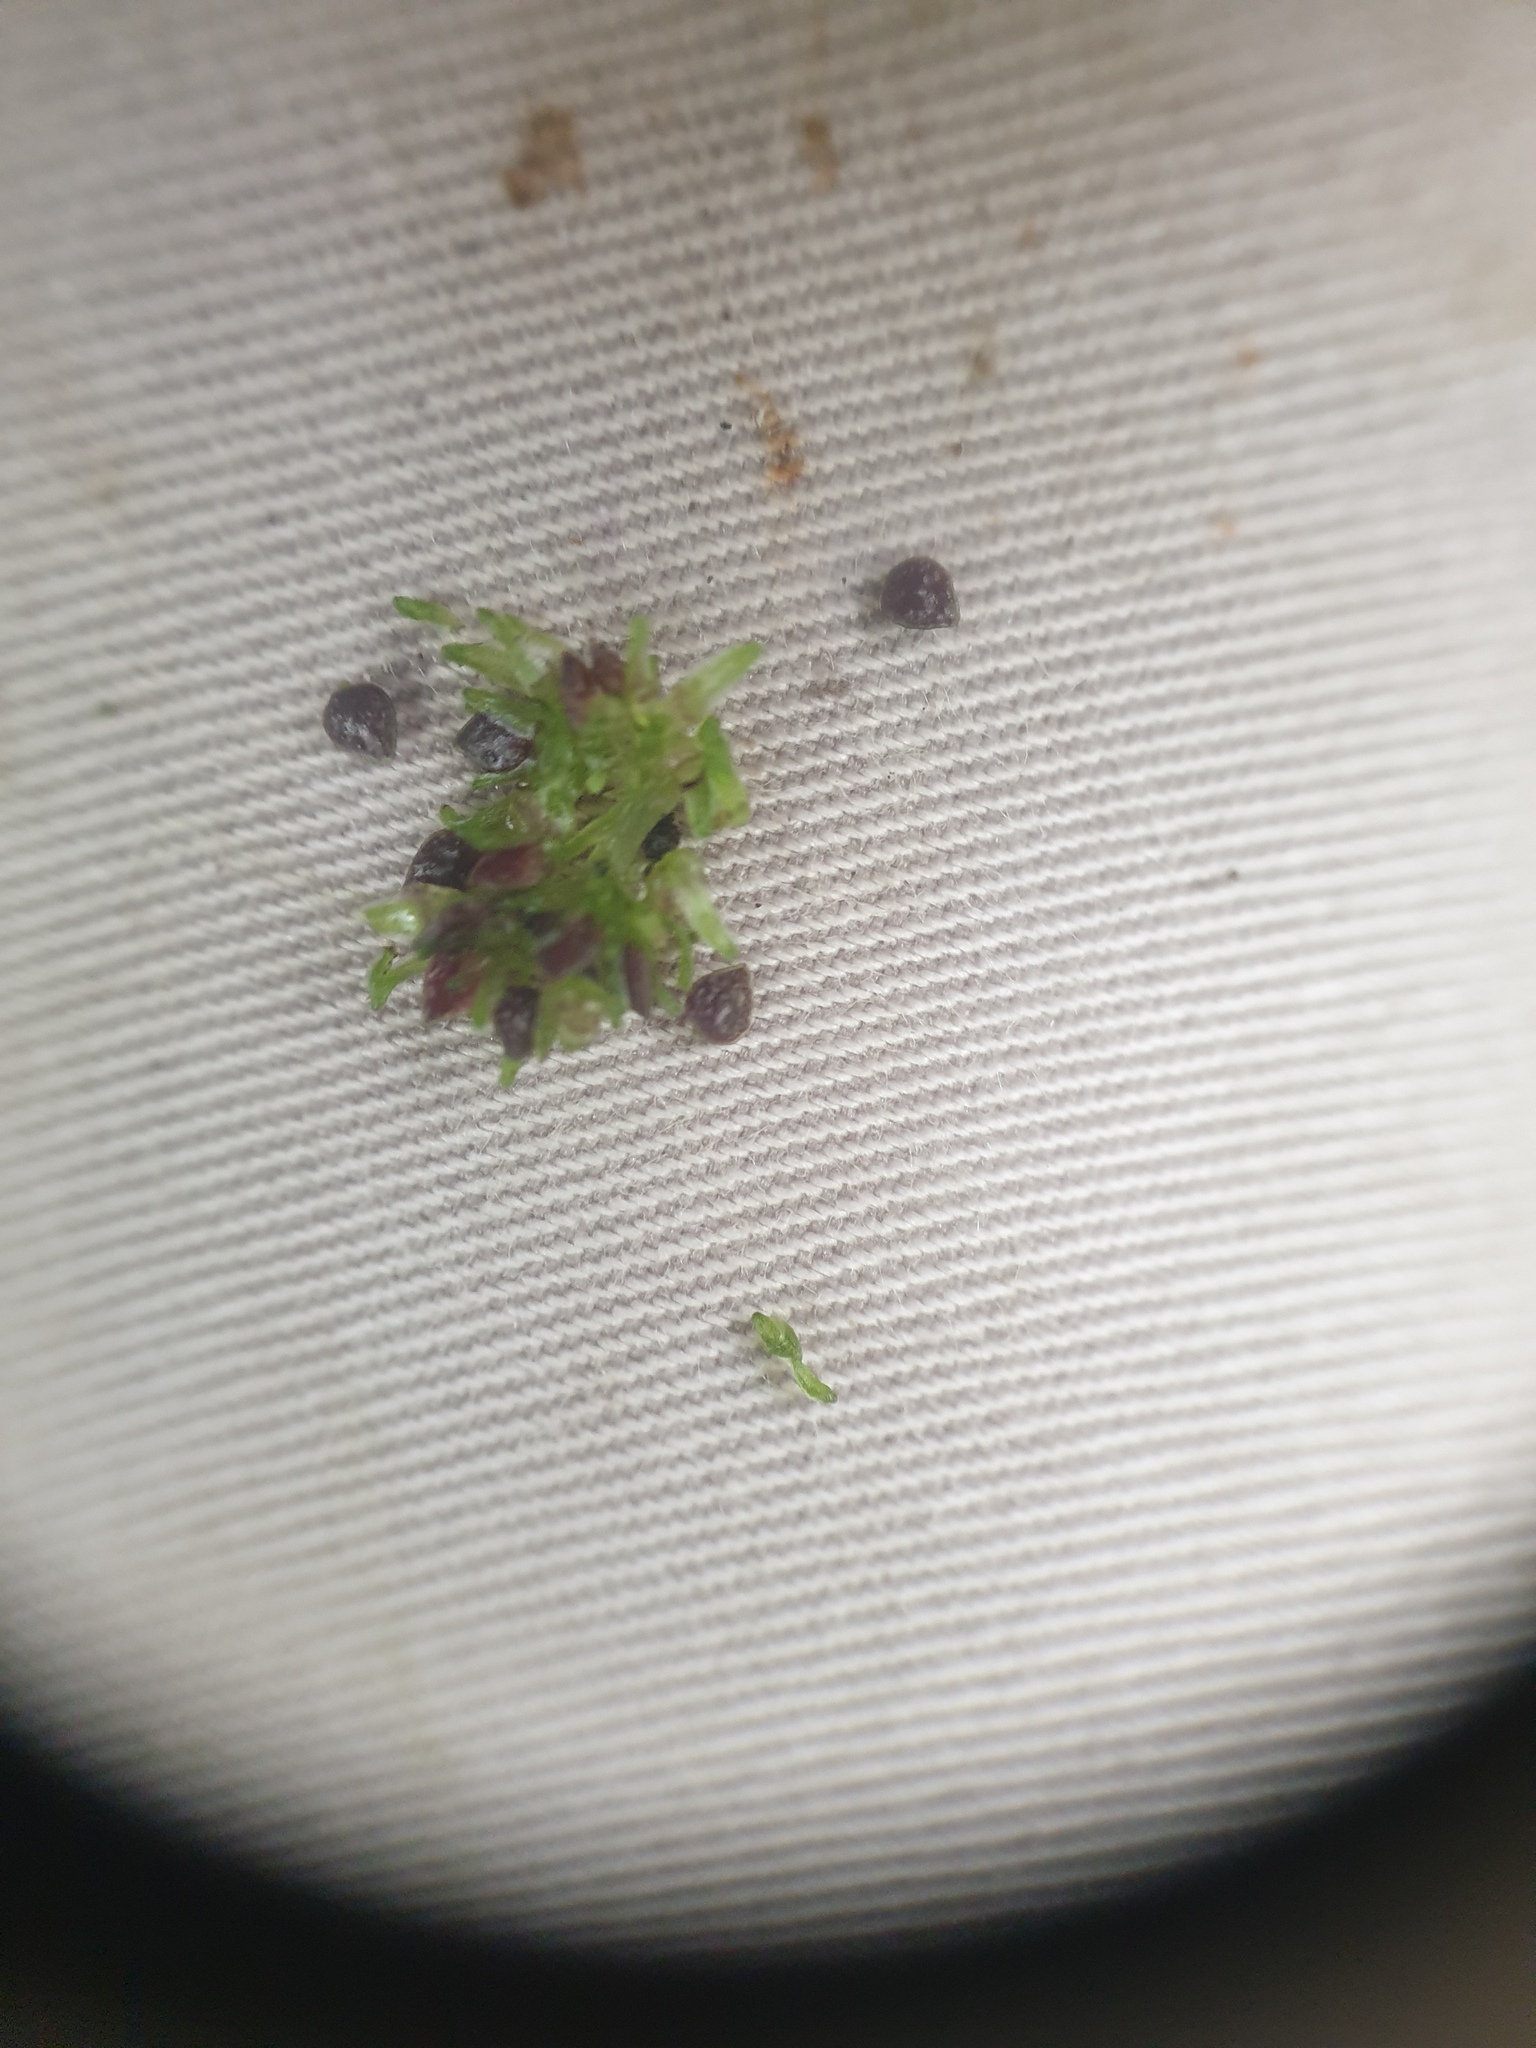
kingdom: Plantae
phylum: Tracheophyta
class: Magnoliopsida
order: Rosales
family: Urticaceae
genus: Pilea
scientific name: Pilea fontana
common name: Clearweed
